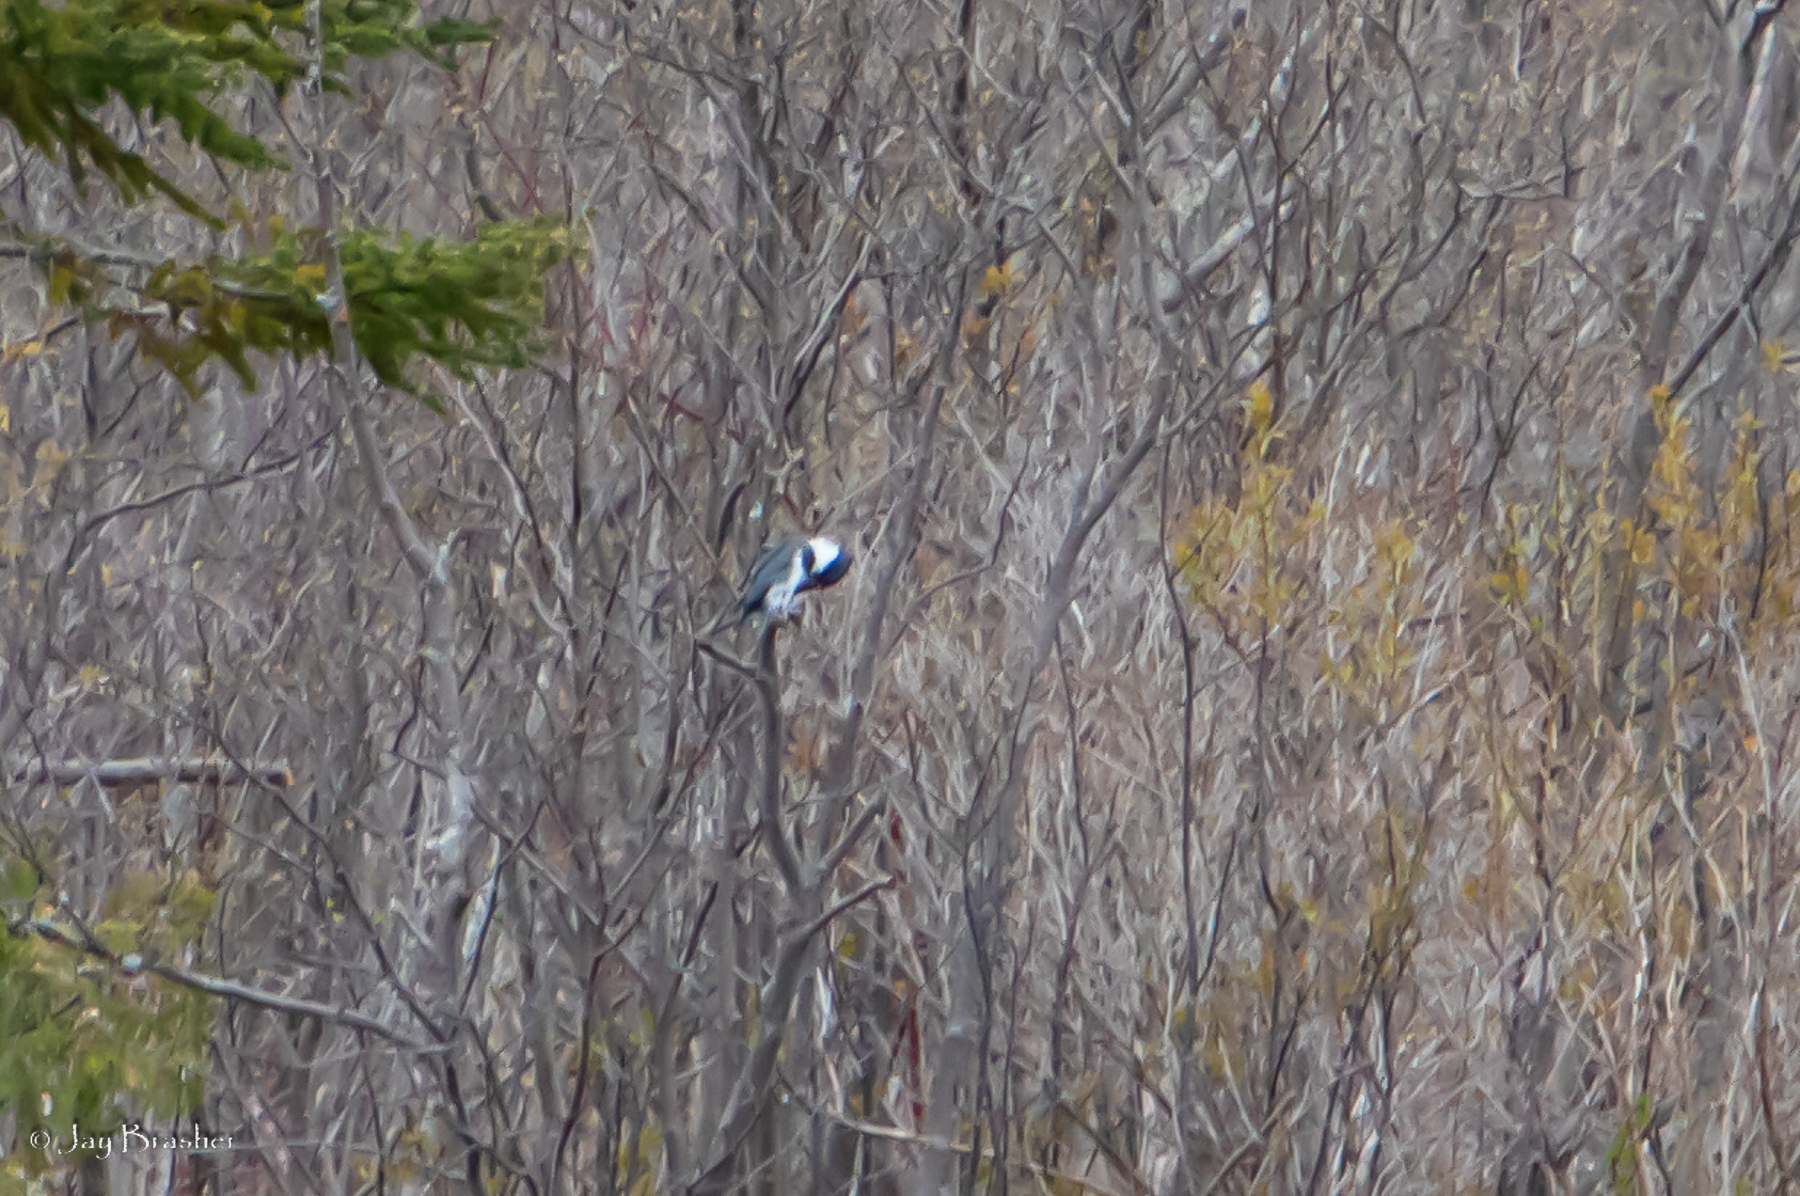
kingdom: Animalia
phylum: Chordata
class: Aves
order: Coraciiformes
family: Alcedinidae
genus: Megaceryle
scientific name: Megaceryle alcyon
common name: Belted kingfisher
